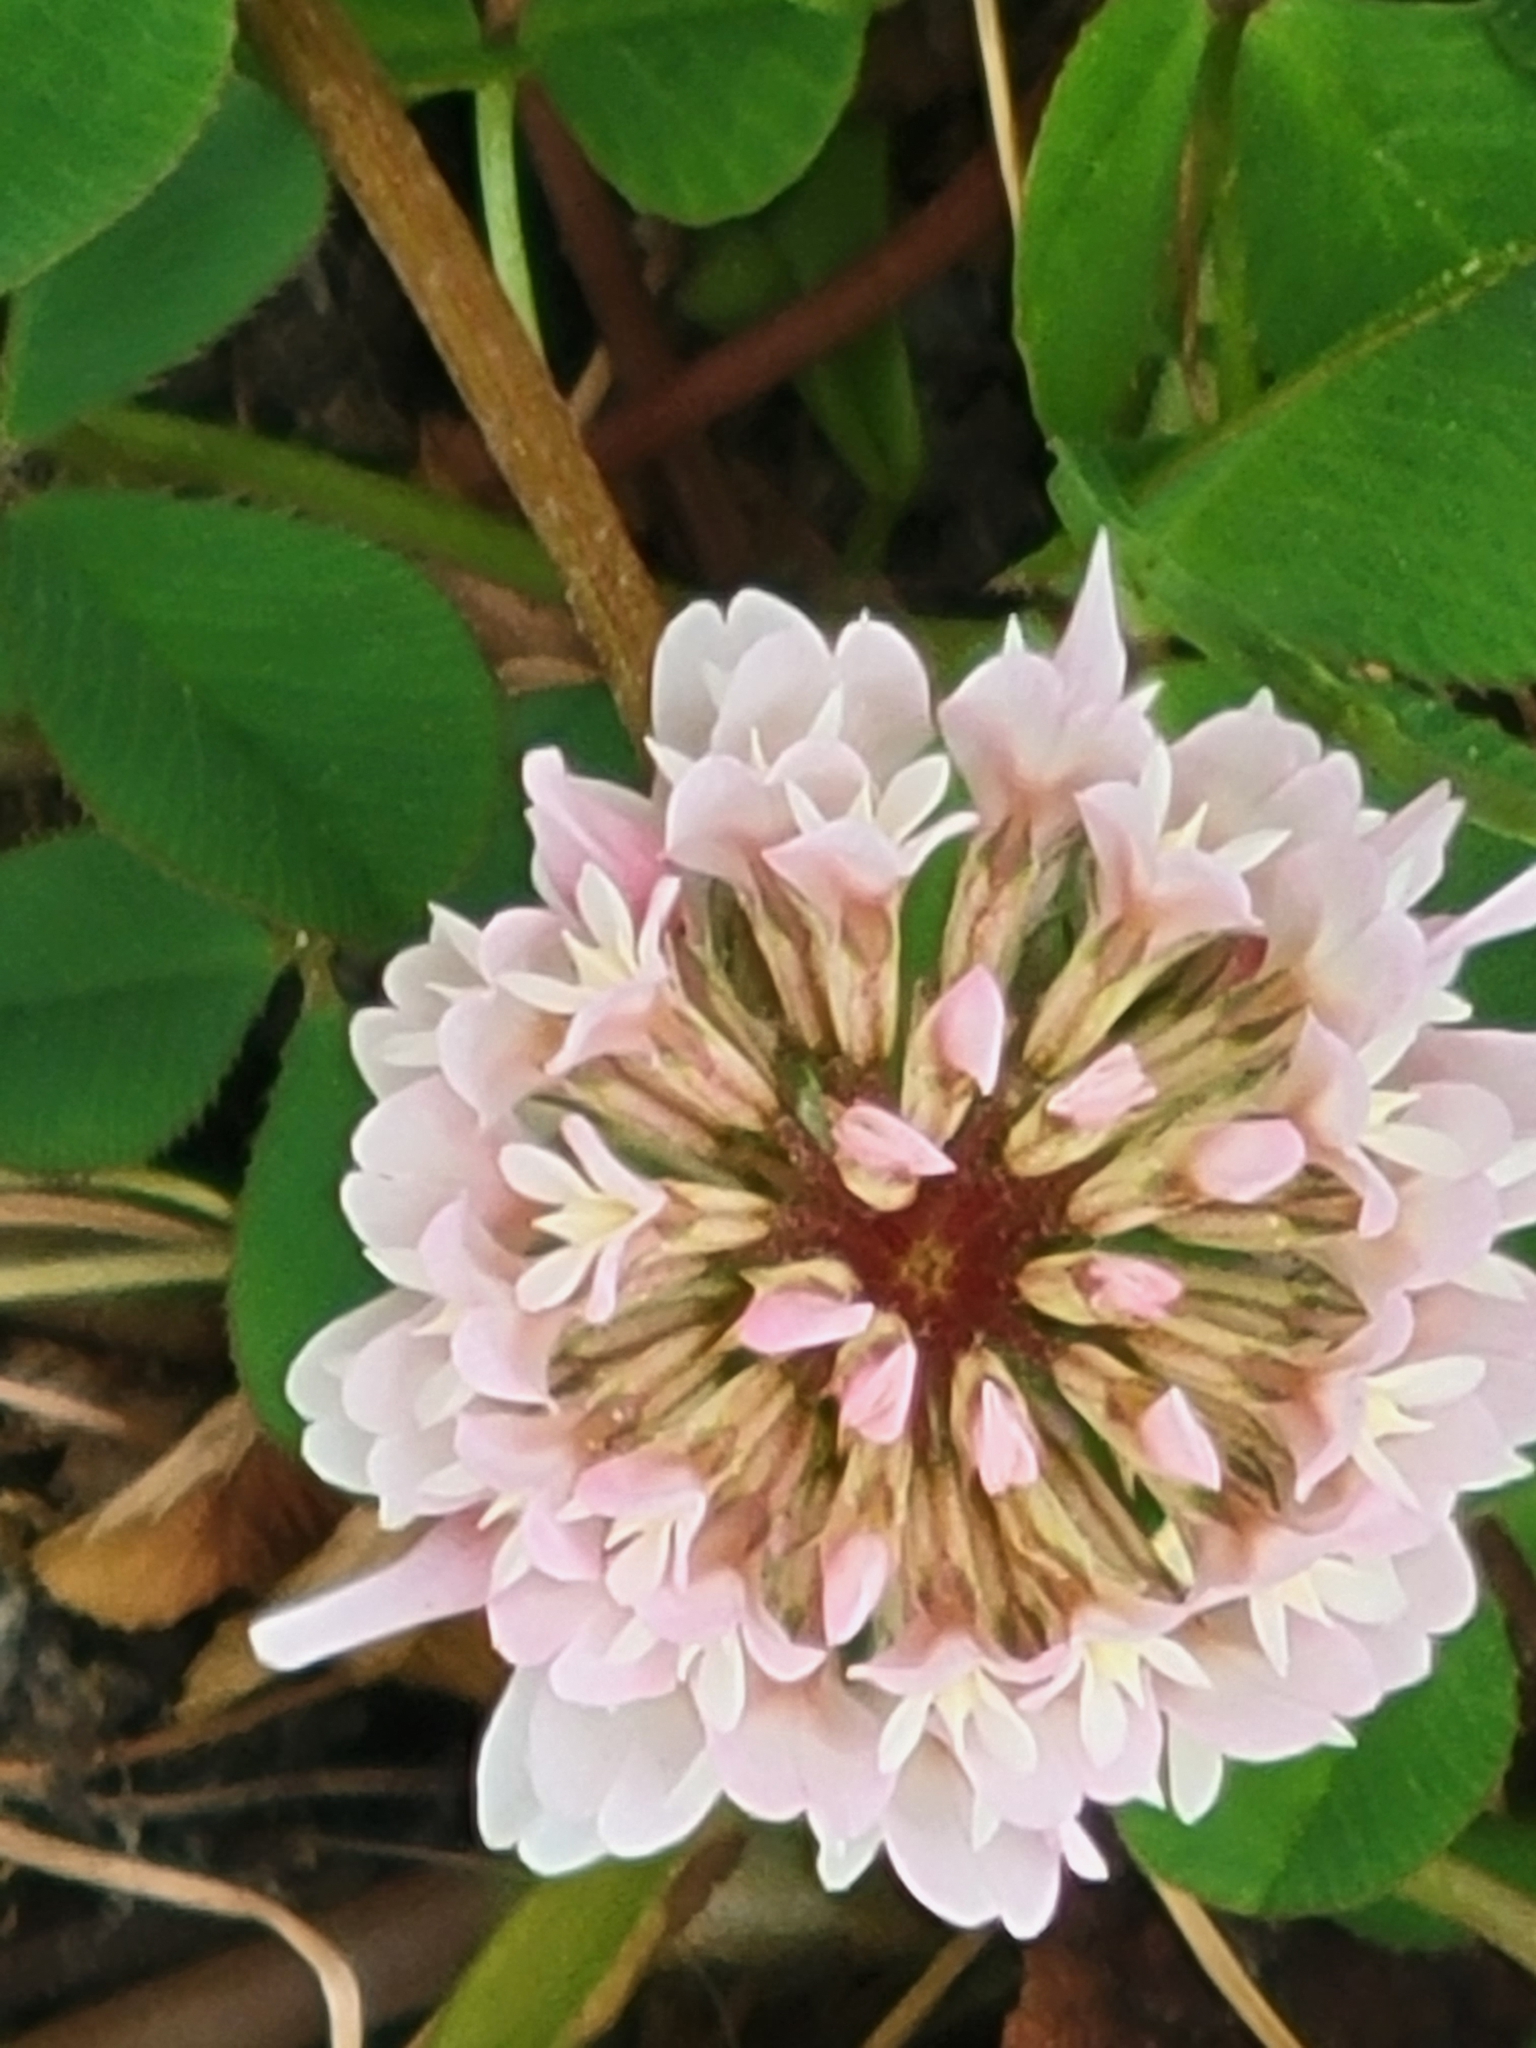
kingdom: Plantae
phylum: Tracheophyta
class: Magnoliopsida
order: Fabales
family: Fabaceae
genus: Trifolium
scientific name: Trifolium repens
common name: White clover
